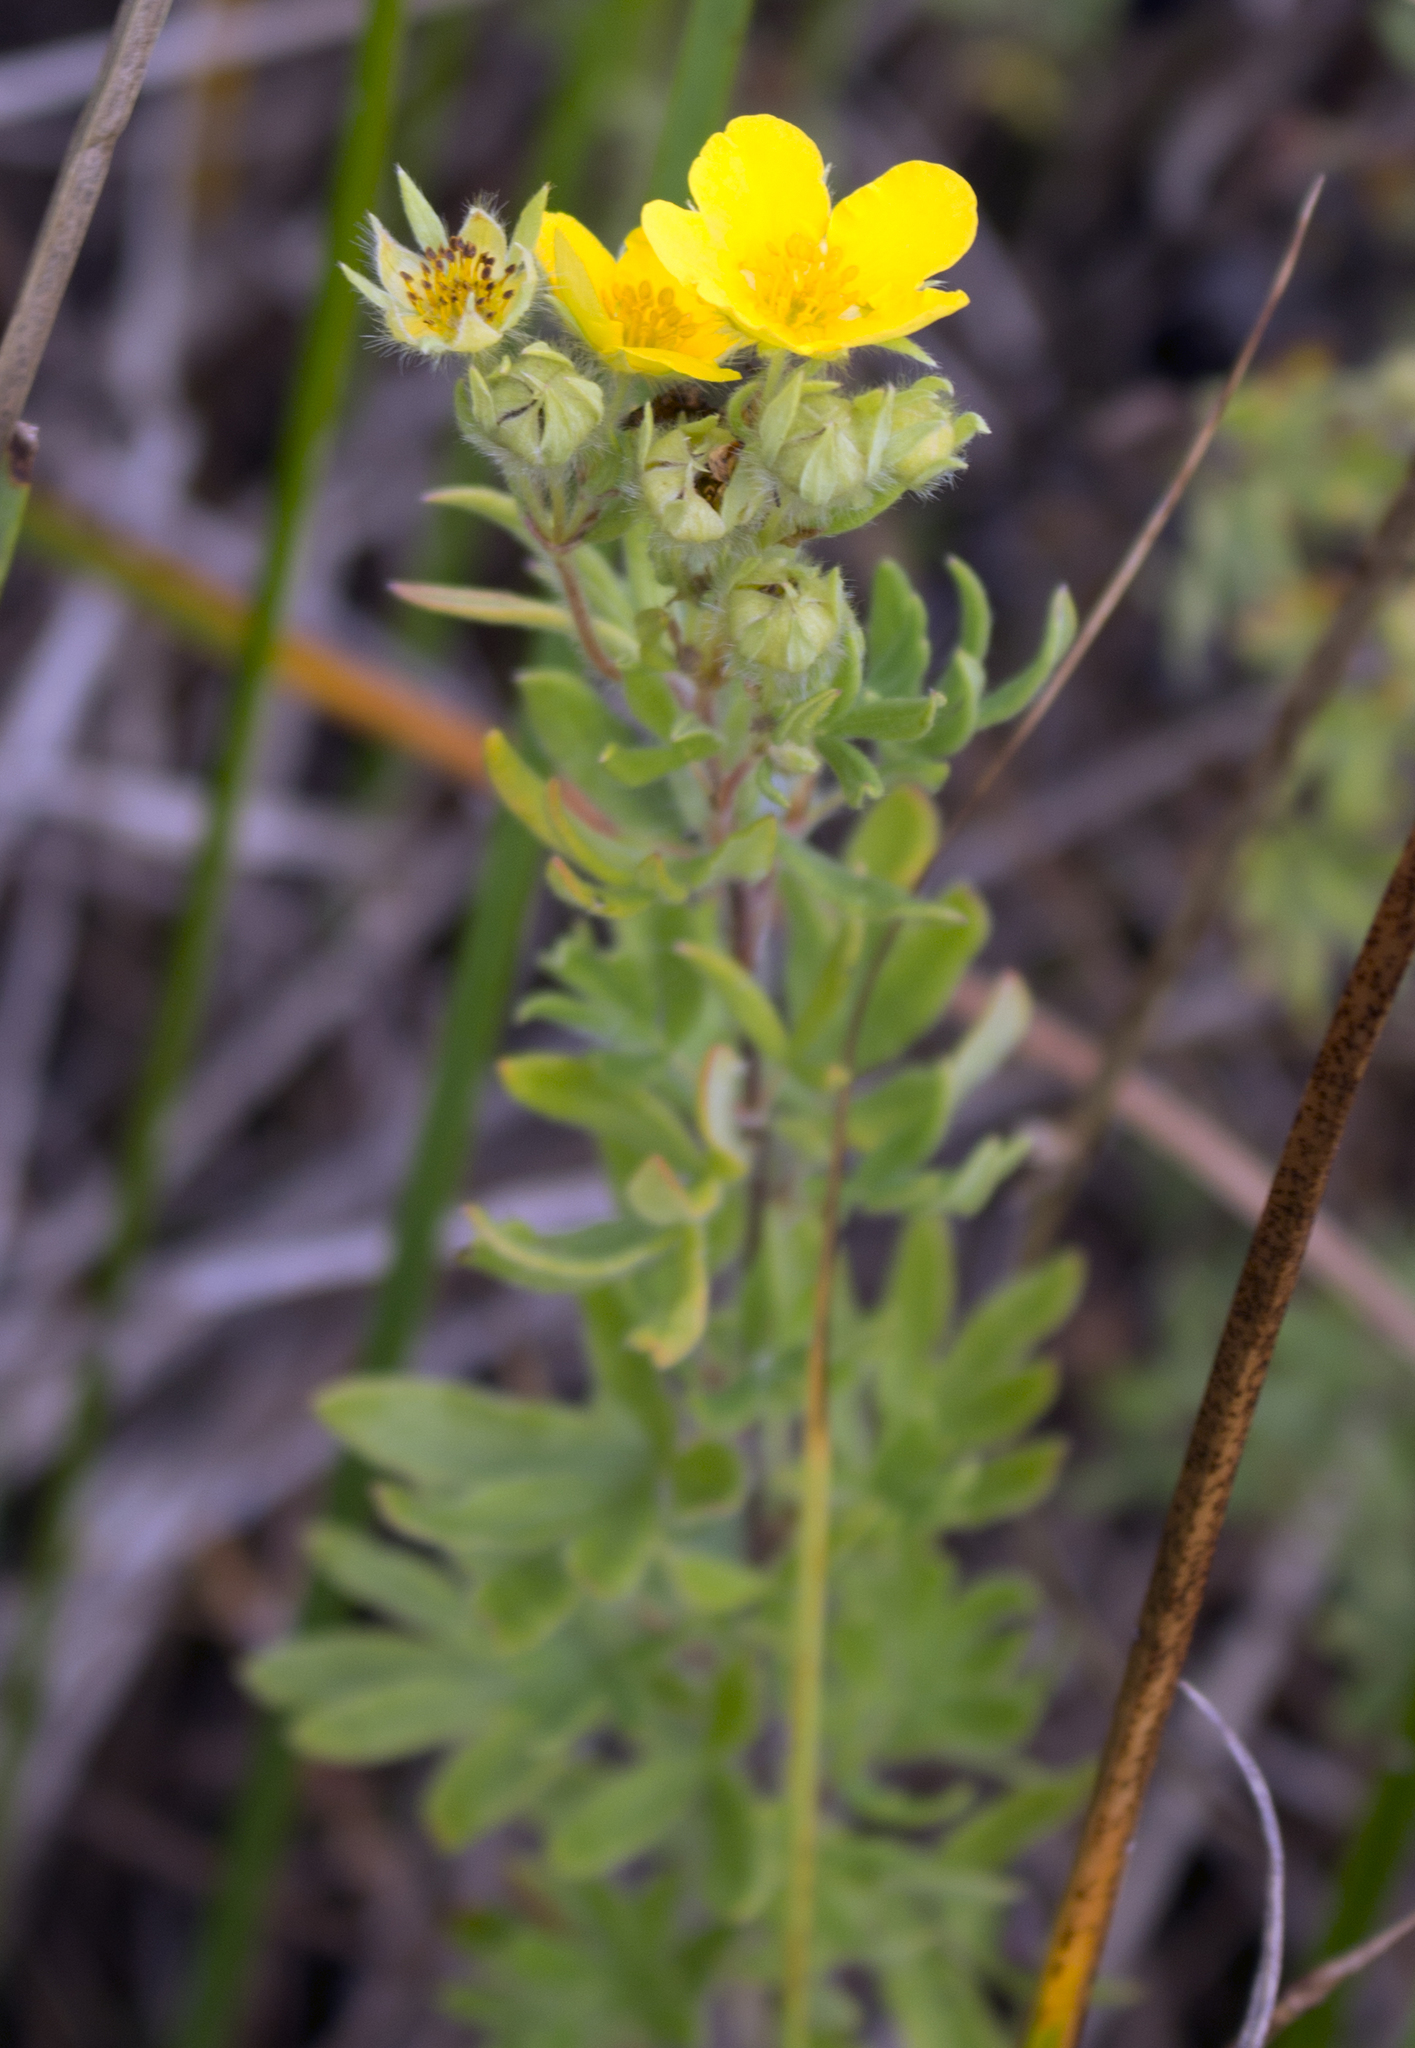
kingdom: Plantae
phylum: Tracheophyta
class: Magnoliopsida
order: Rosales
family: Rosaceae
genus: Dasiphora
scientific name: Dasiphora fruticosa
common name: Shrubby cinquefoil
